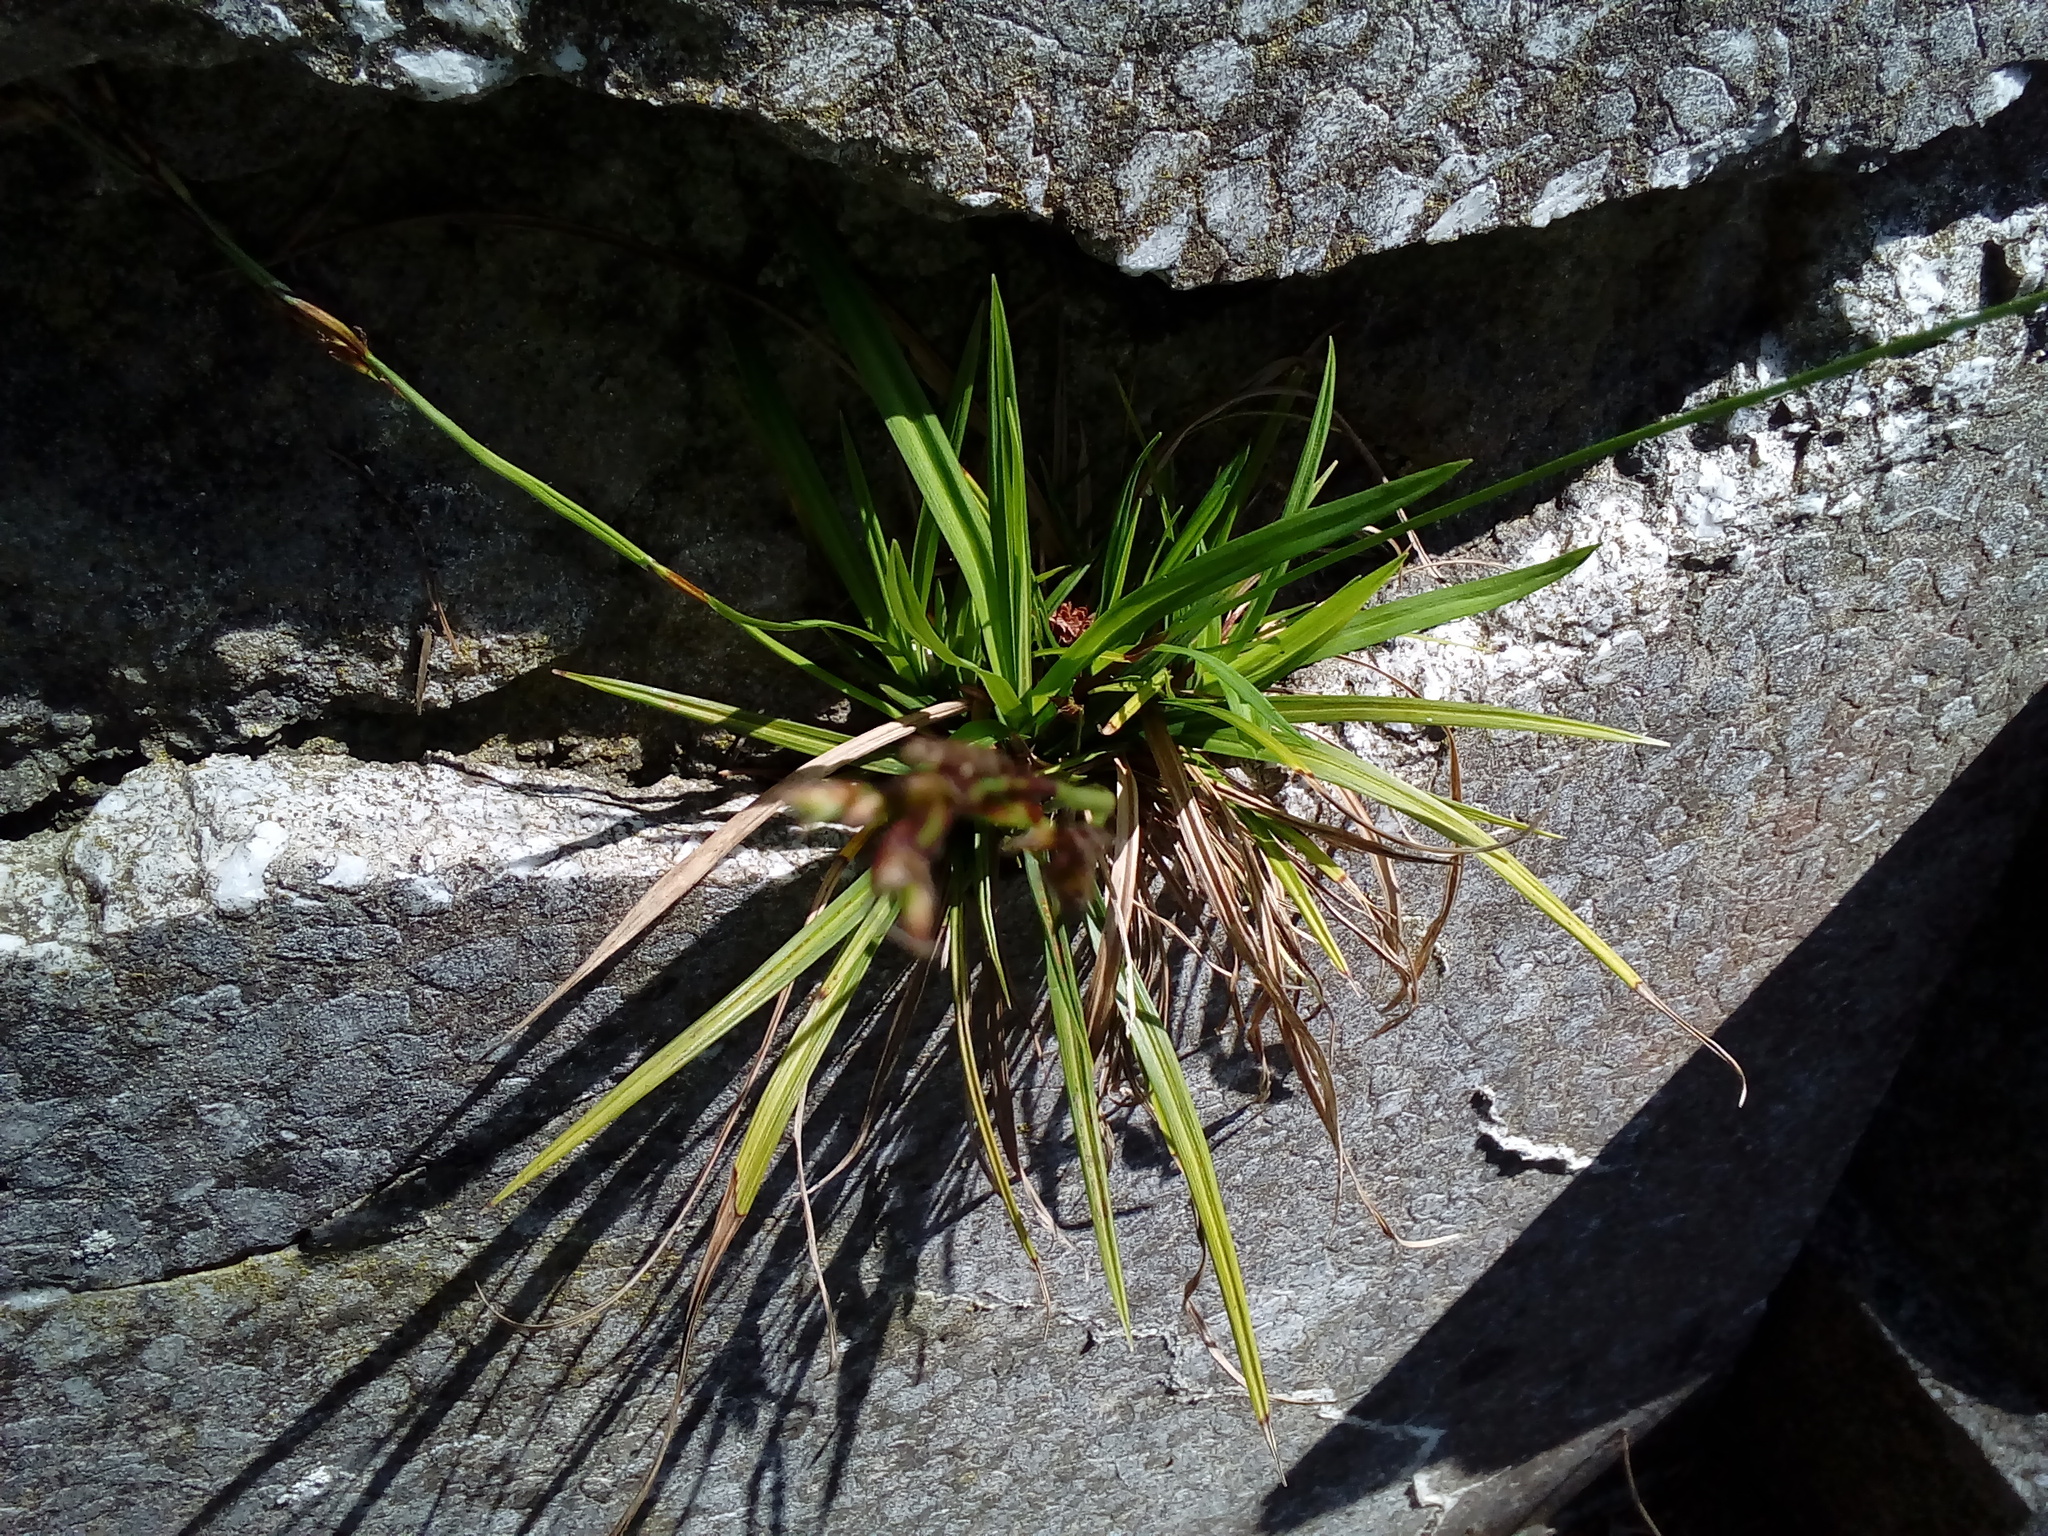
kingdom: Plantae
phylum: Tracheophyta
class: Liliopsida
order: Poales
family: Cyperaceae
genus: Carex
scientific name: Carex digitata
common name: Fingered sedge
